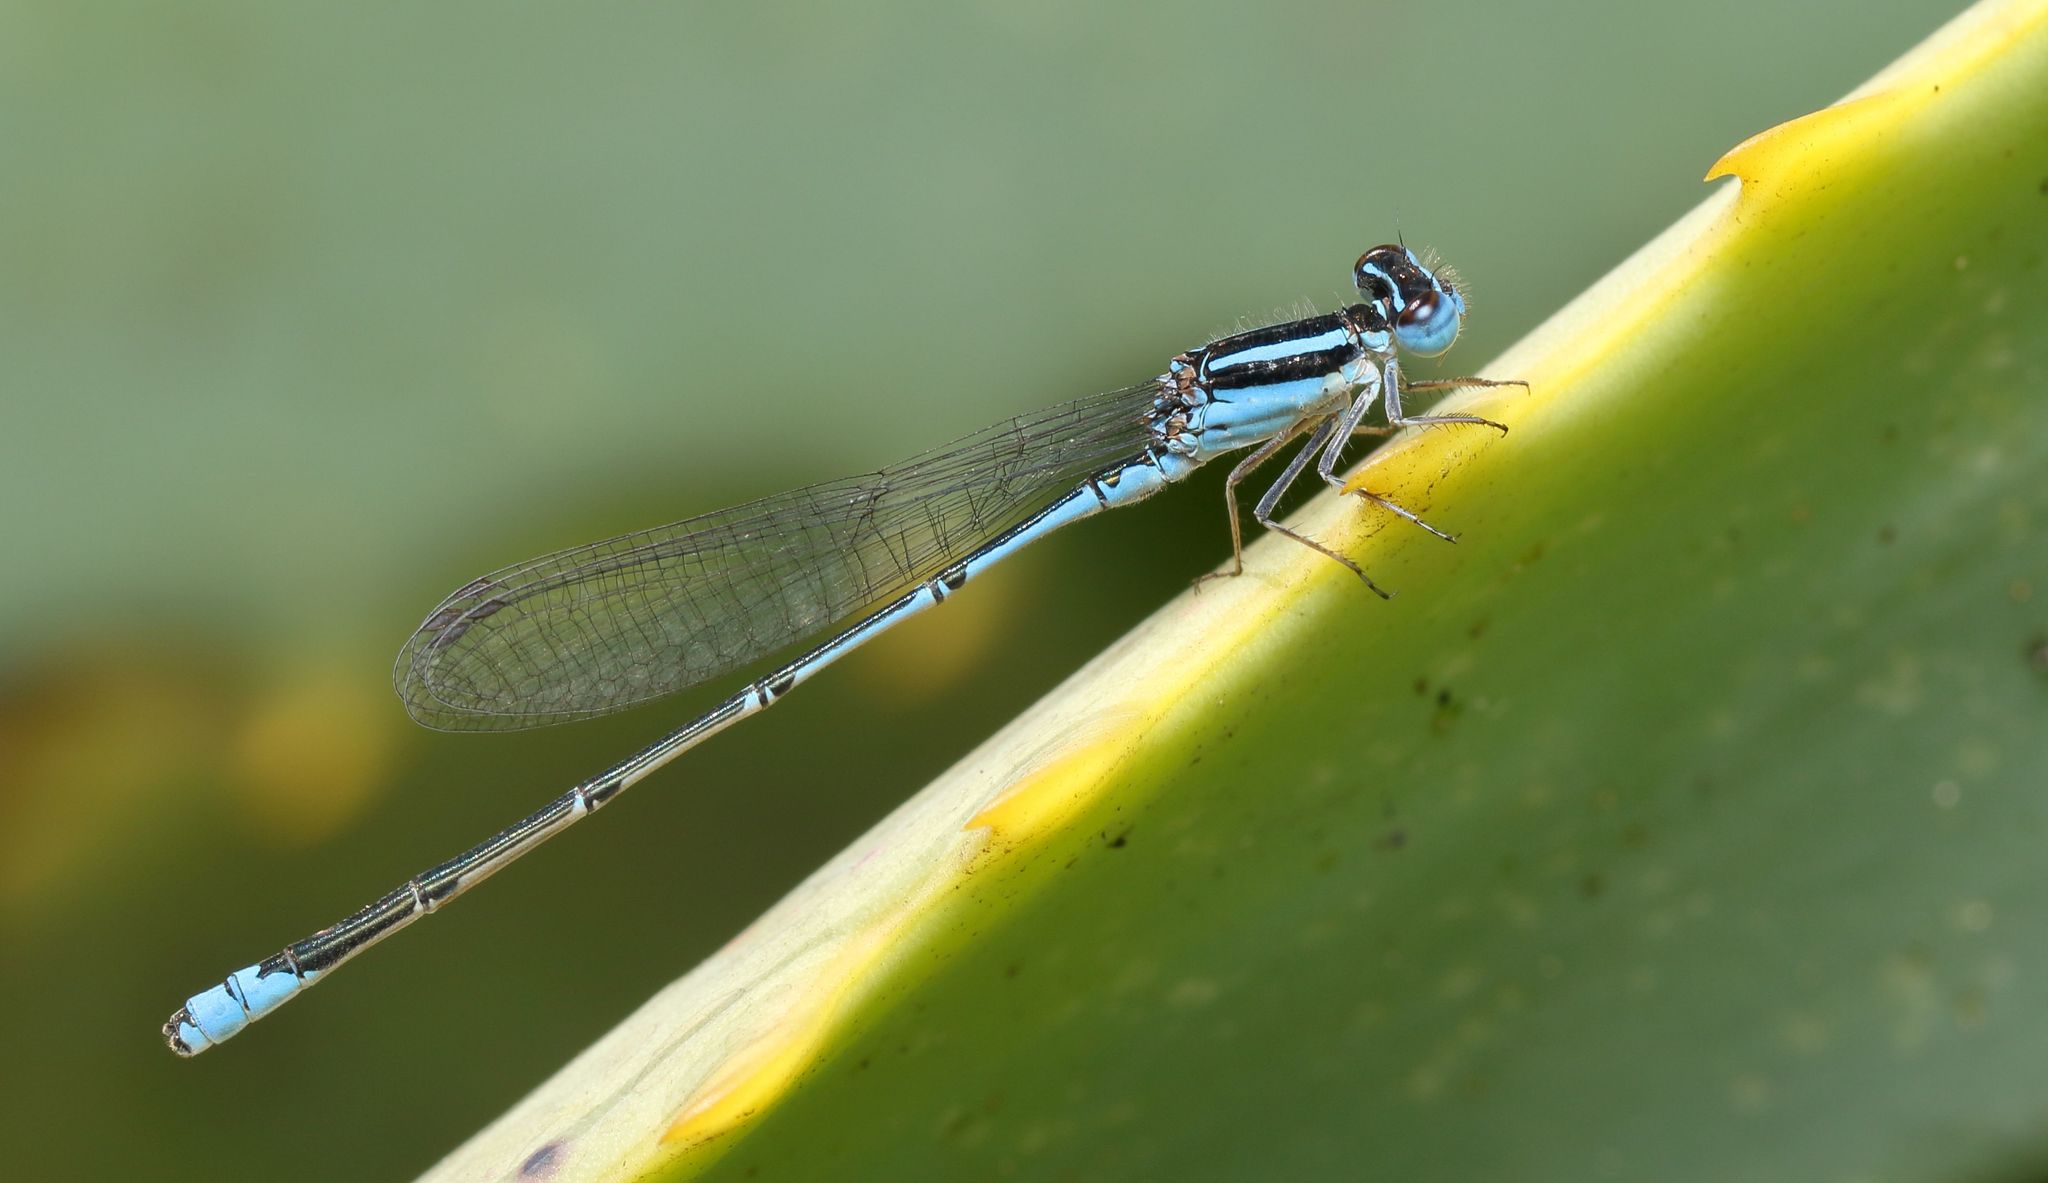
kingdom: Animalia
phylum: Arthropoda
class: Insecta
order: Odonata
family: Coenagrionidae
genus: Azuragrion
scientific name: Azuragrion nigridorsum
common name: Sailing azuret
